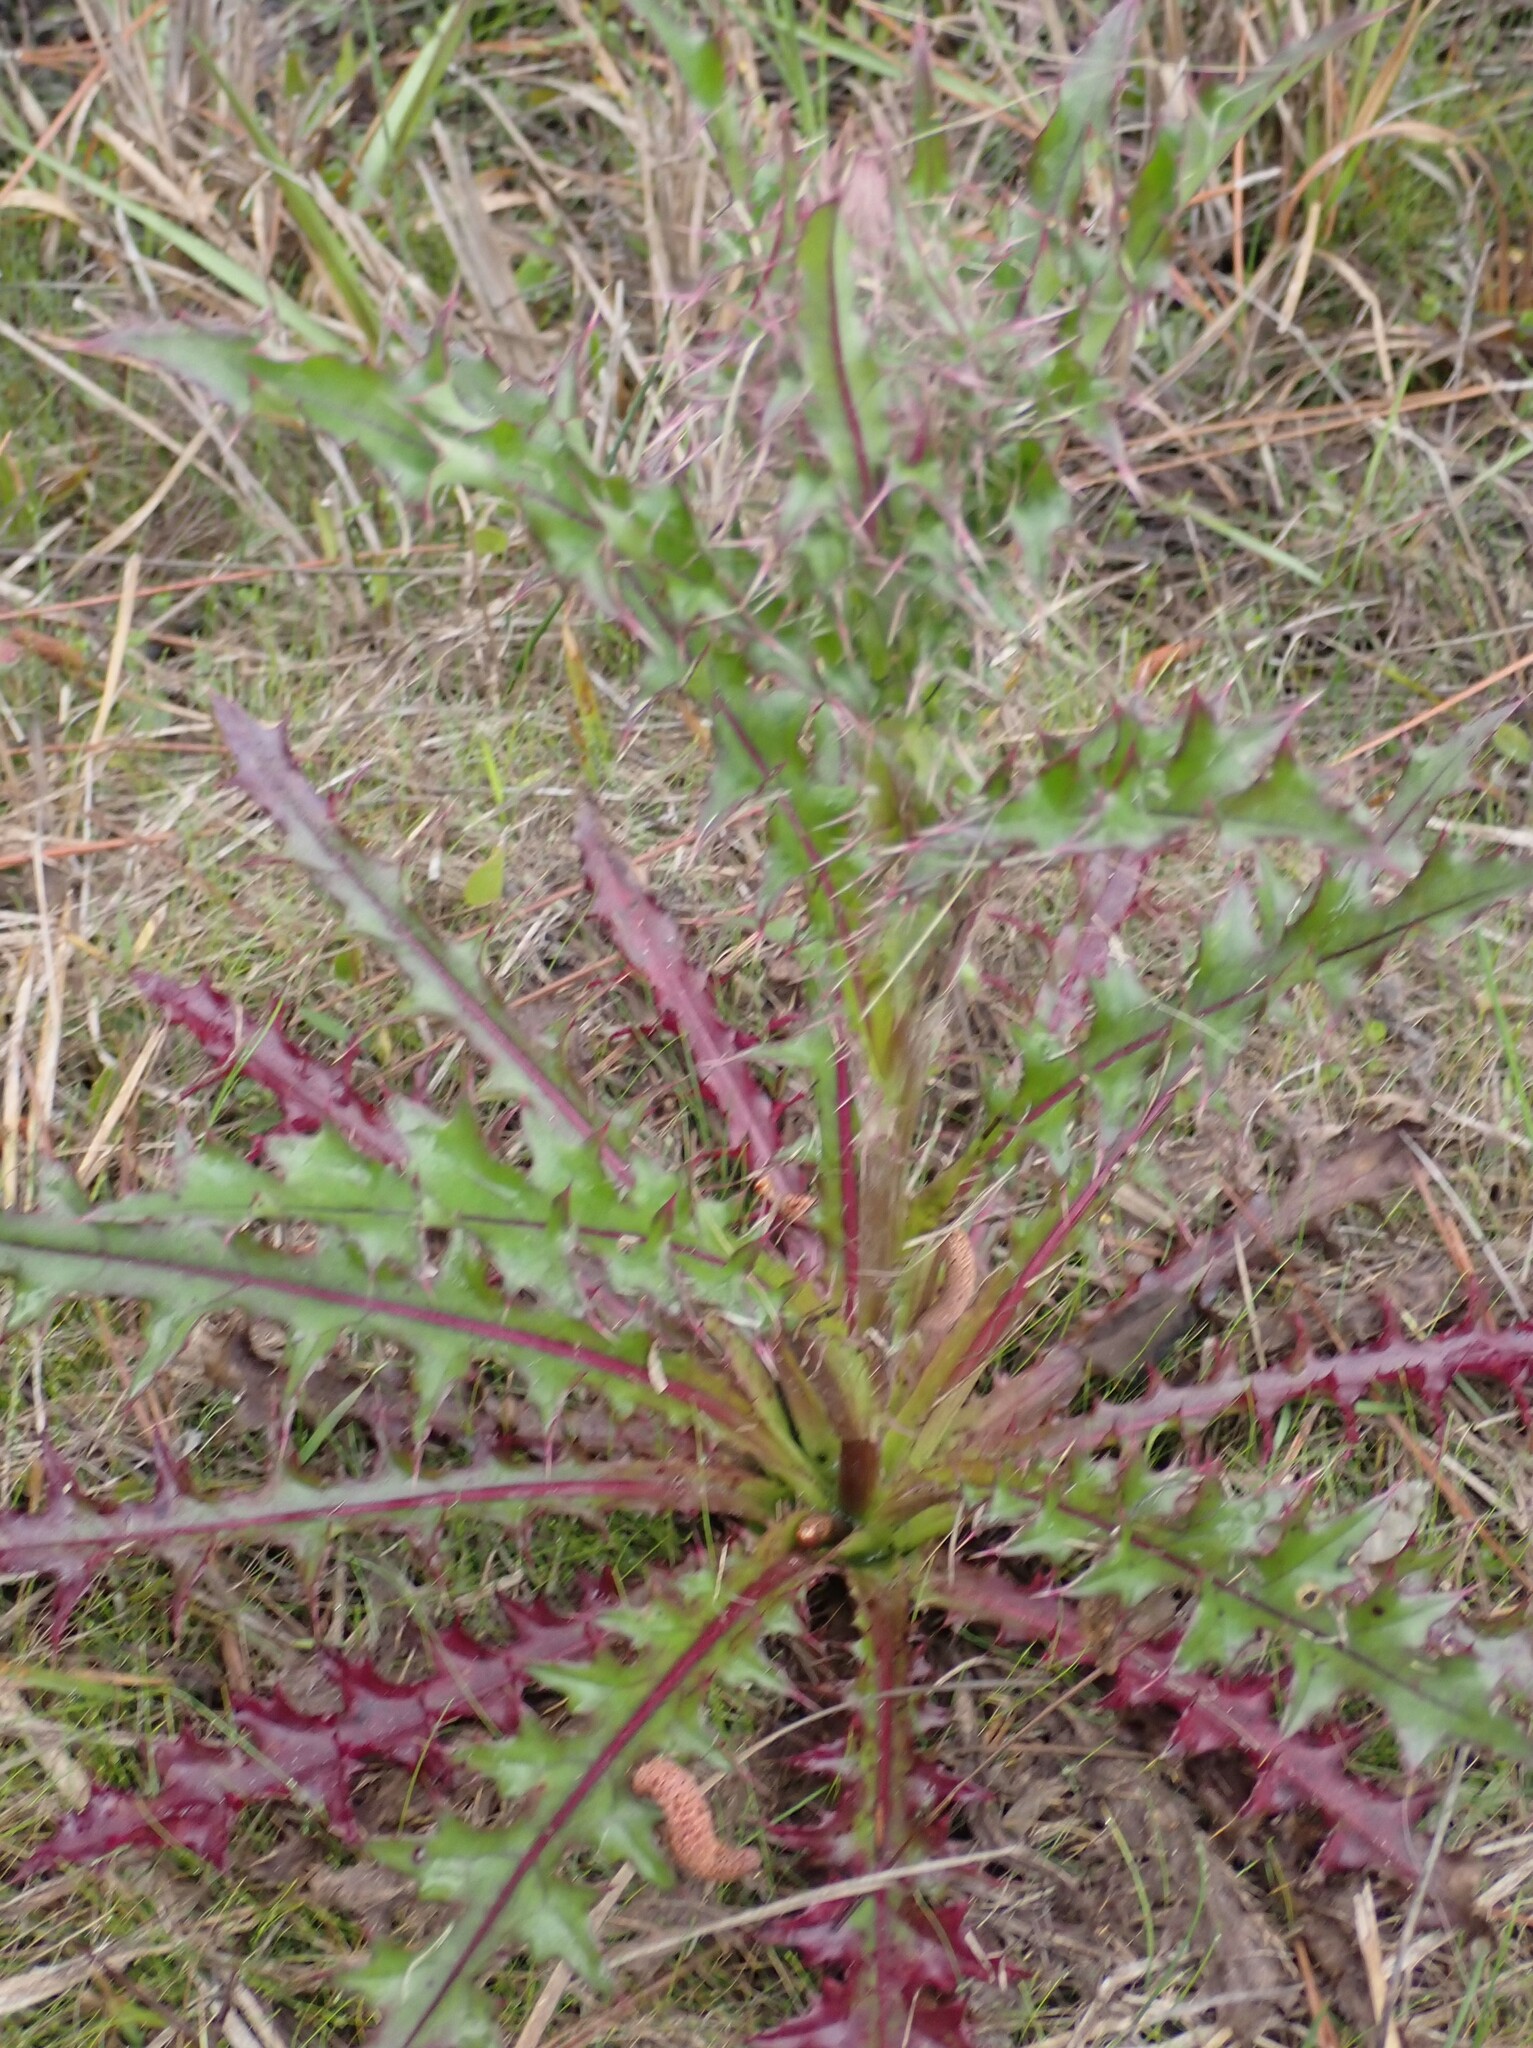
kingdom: Plantae
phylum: Tracheophyta
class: Magnoliopsida
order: Asterales
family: Asteraceae
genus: Cirsium
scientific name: Cirsium horridulum
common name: Bristly thistle
